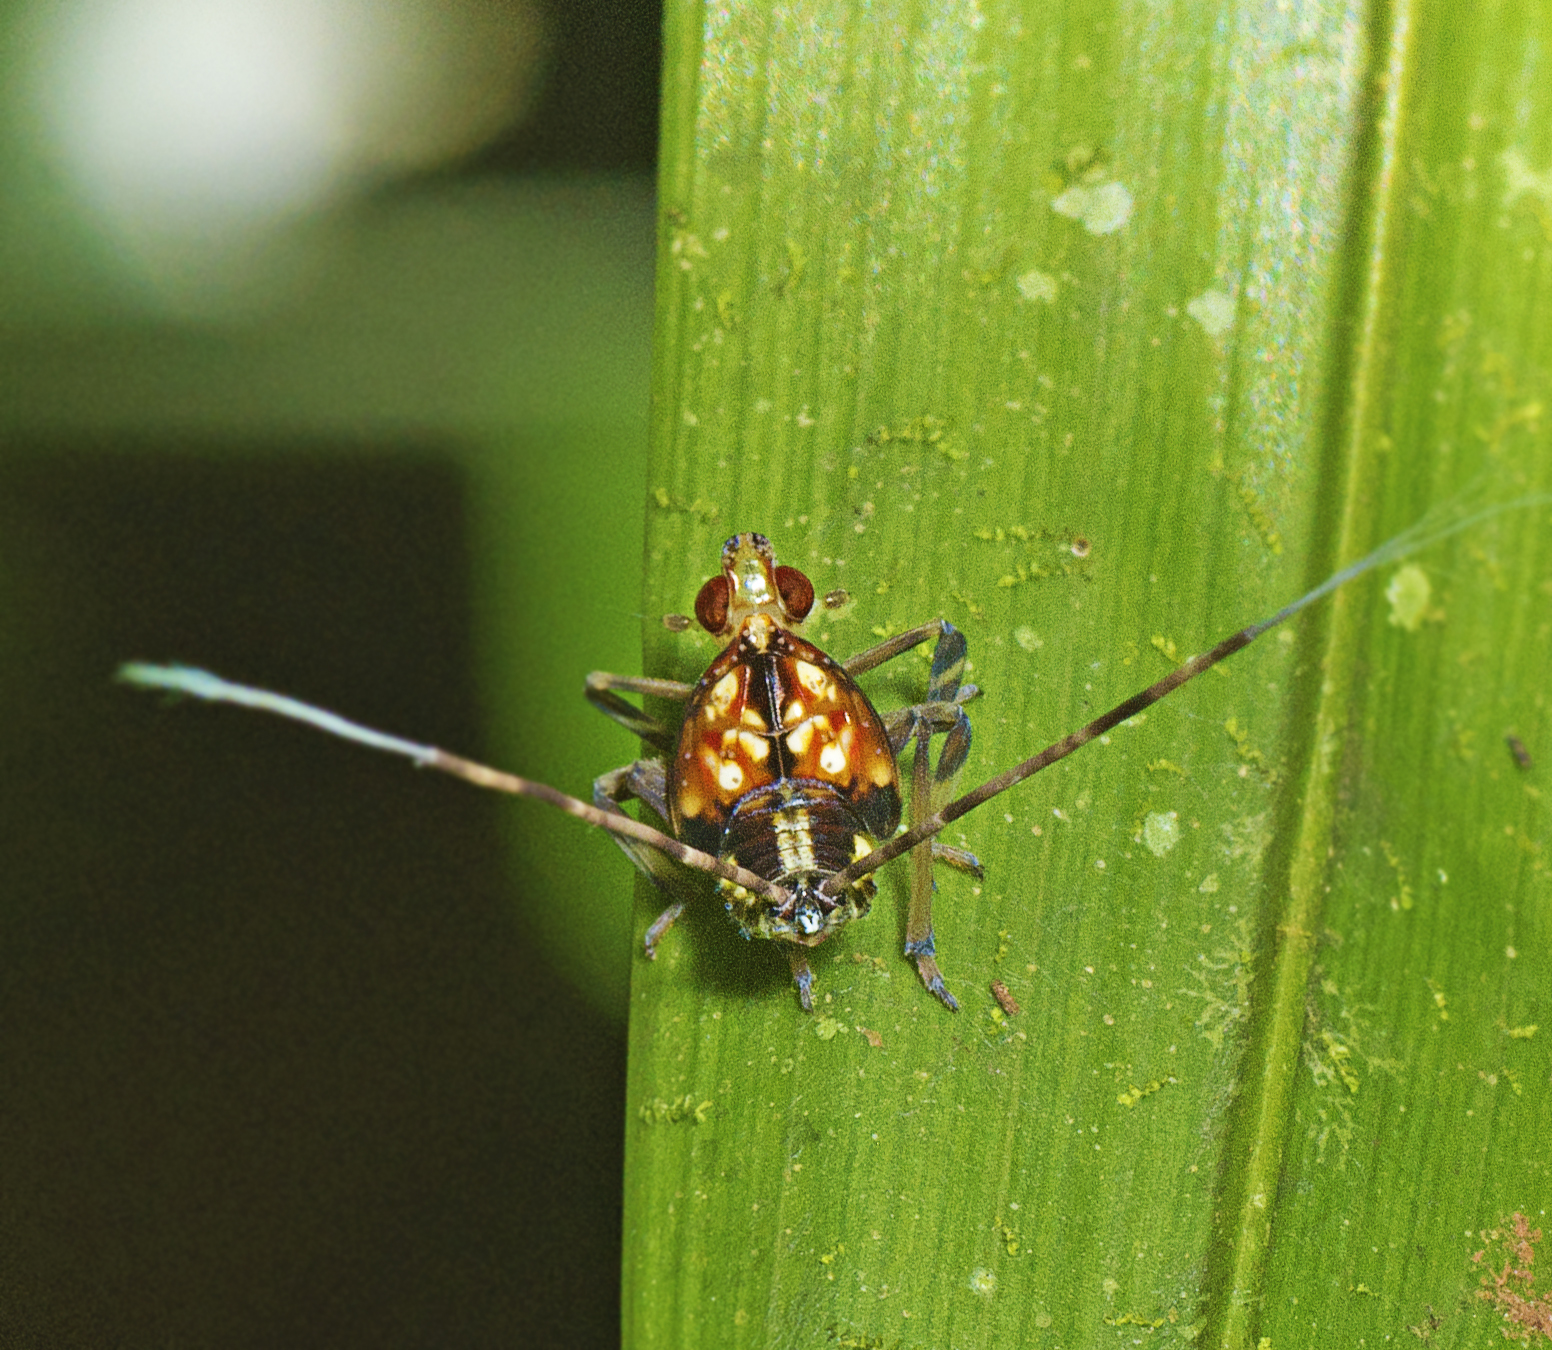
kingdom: Animalia
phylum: Arthropoda
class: Insecta
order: Hemiptera
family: Lophopidae
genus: Magia
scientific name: Magia
